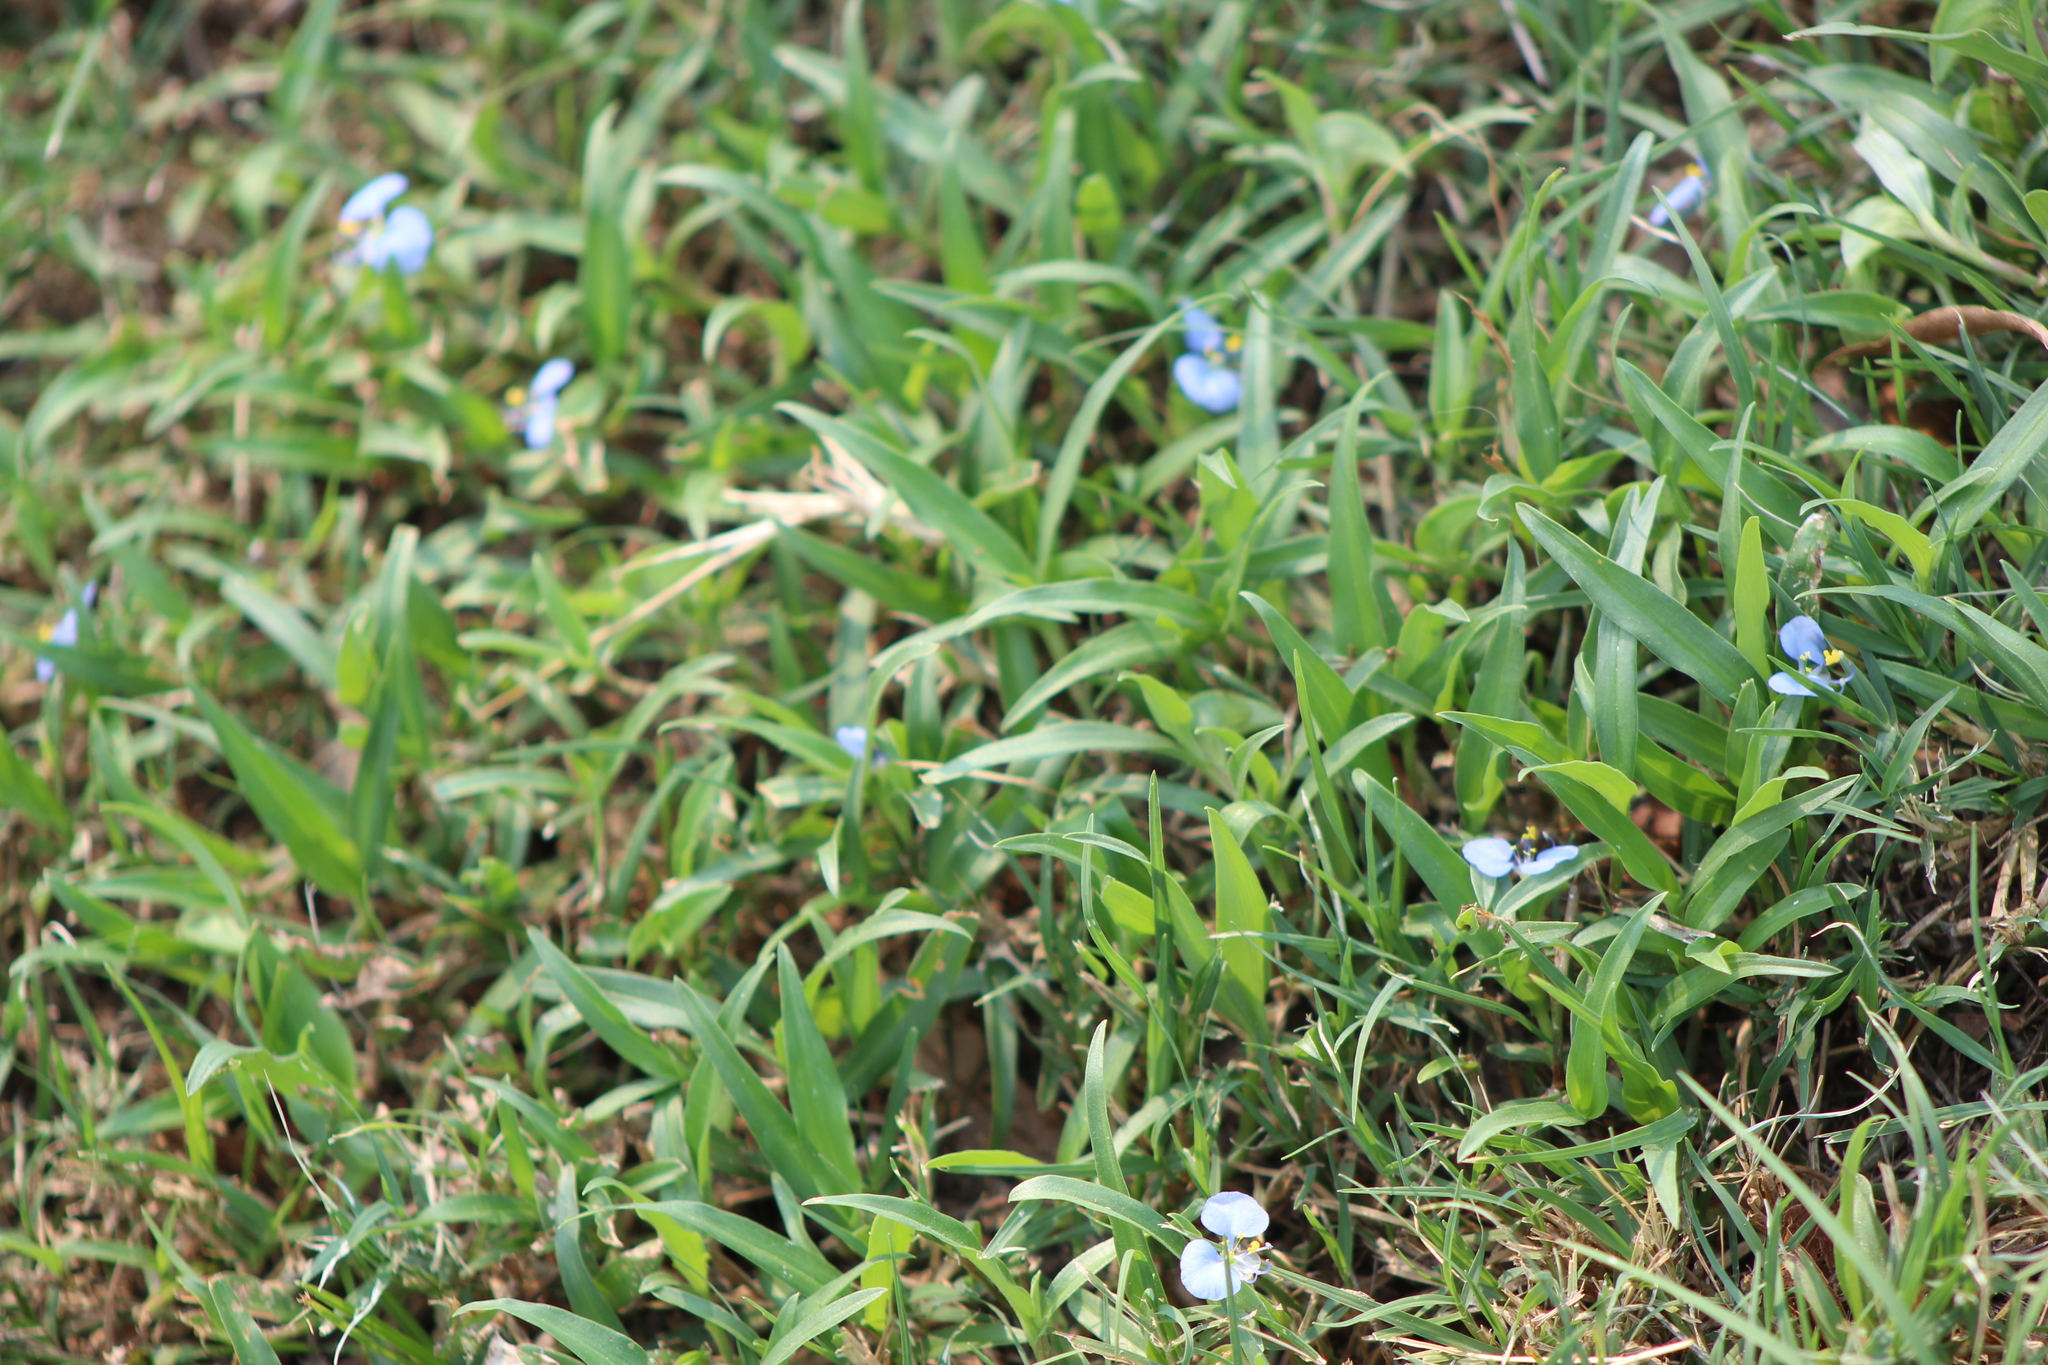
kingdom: Plantae
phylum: Tracheophyta
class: Liliopsida
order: Commelinales
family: Commelinaceae
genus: Commelina
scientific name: Commelina erecta
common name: Blousel blommetjie
